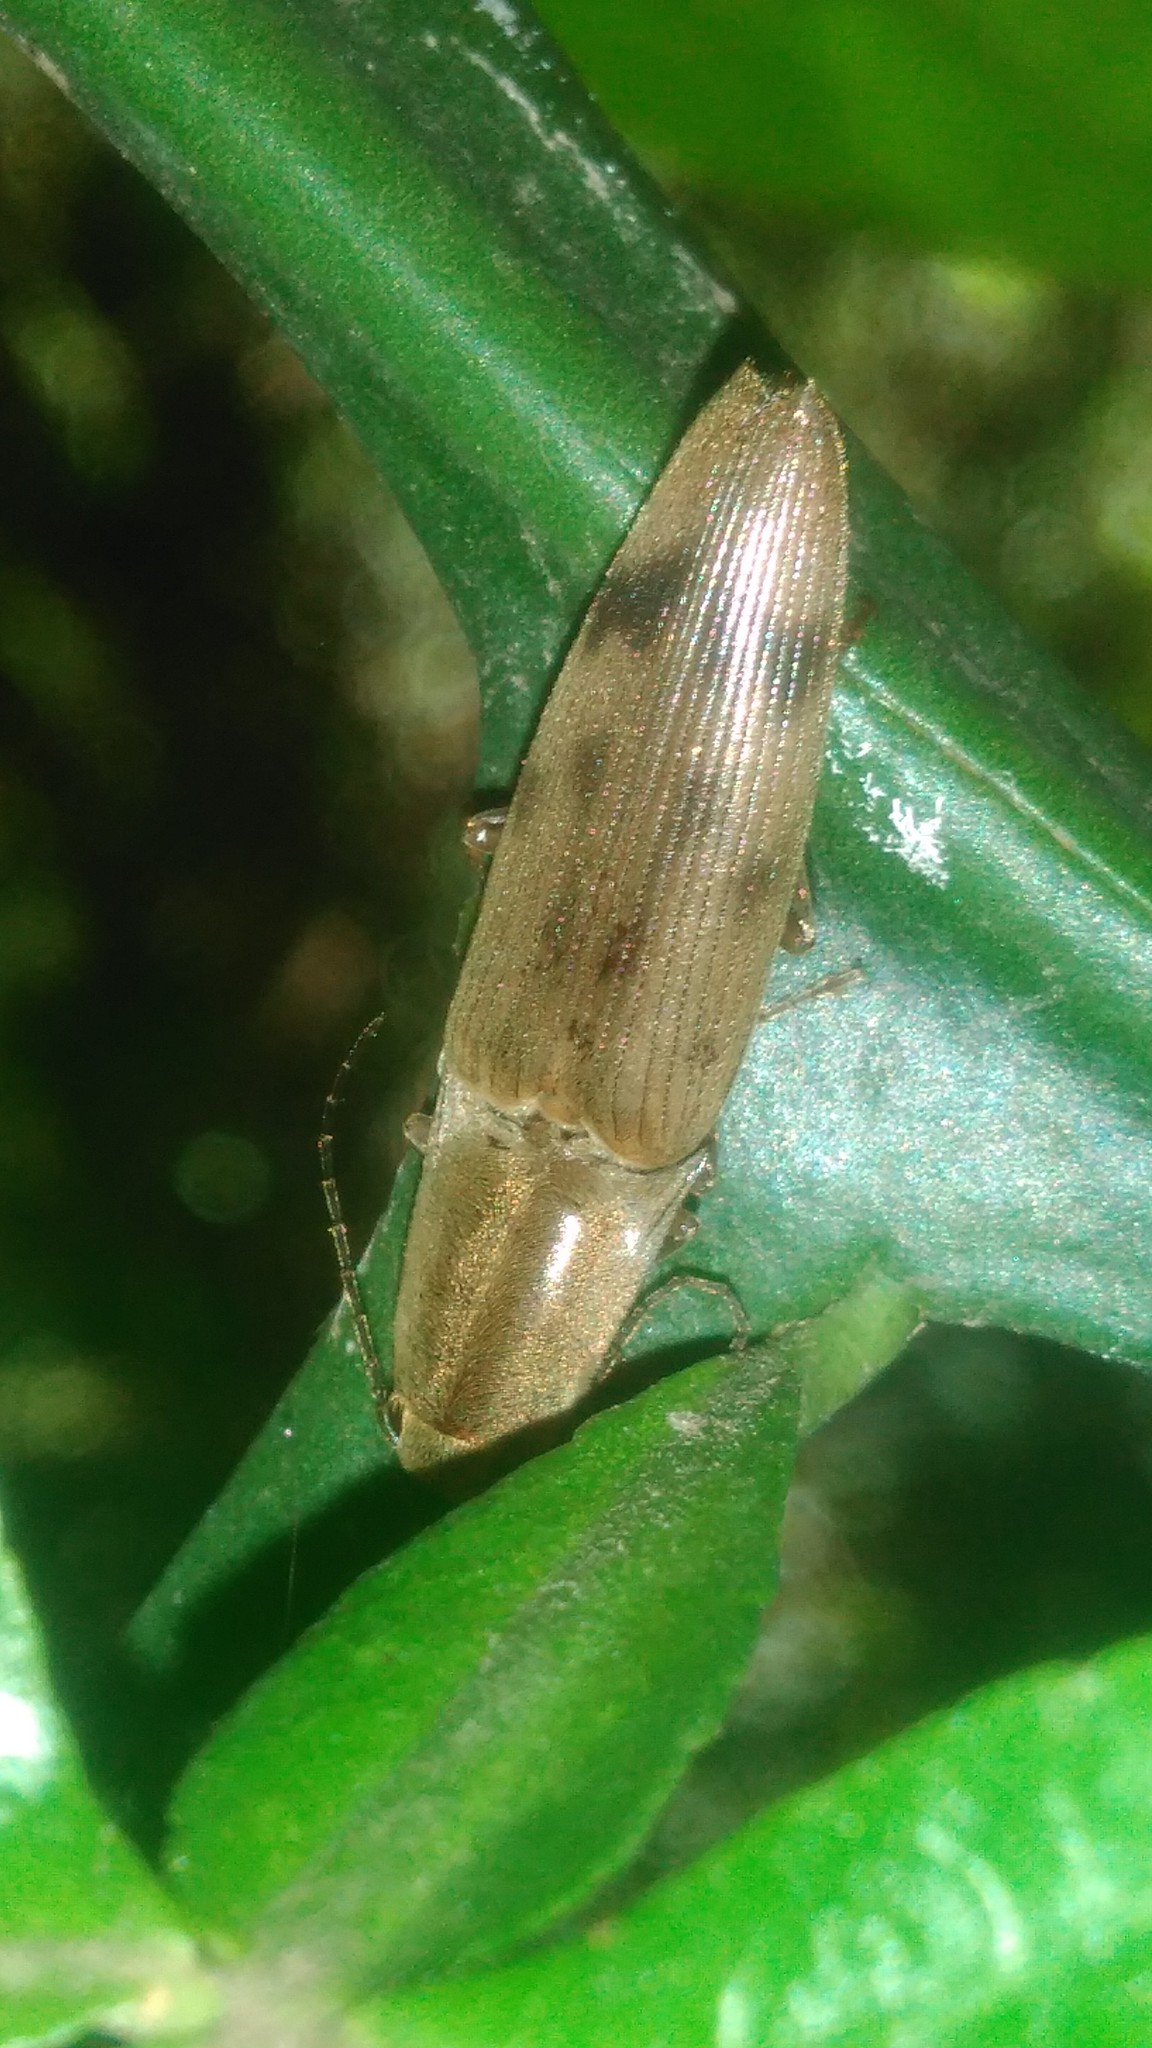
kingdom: Animalia
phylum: Arthropoda
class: Insecta
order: Coleoptera
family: Elateridae
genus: Monocrepidius
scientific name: Monocrepidius
